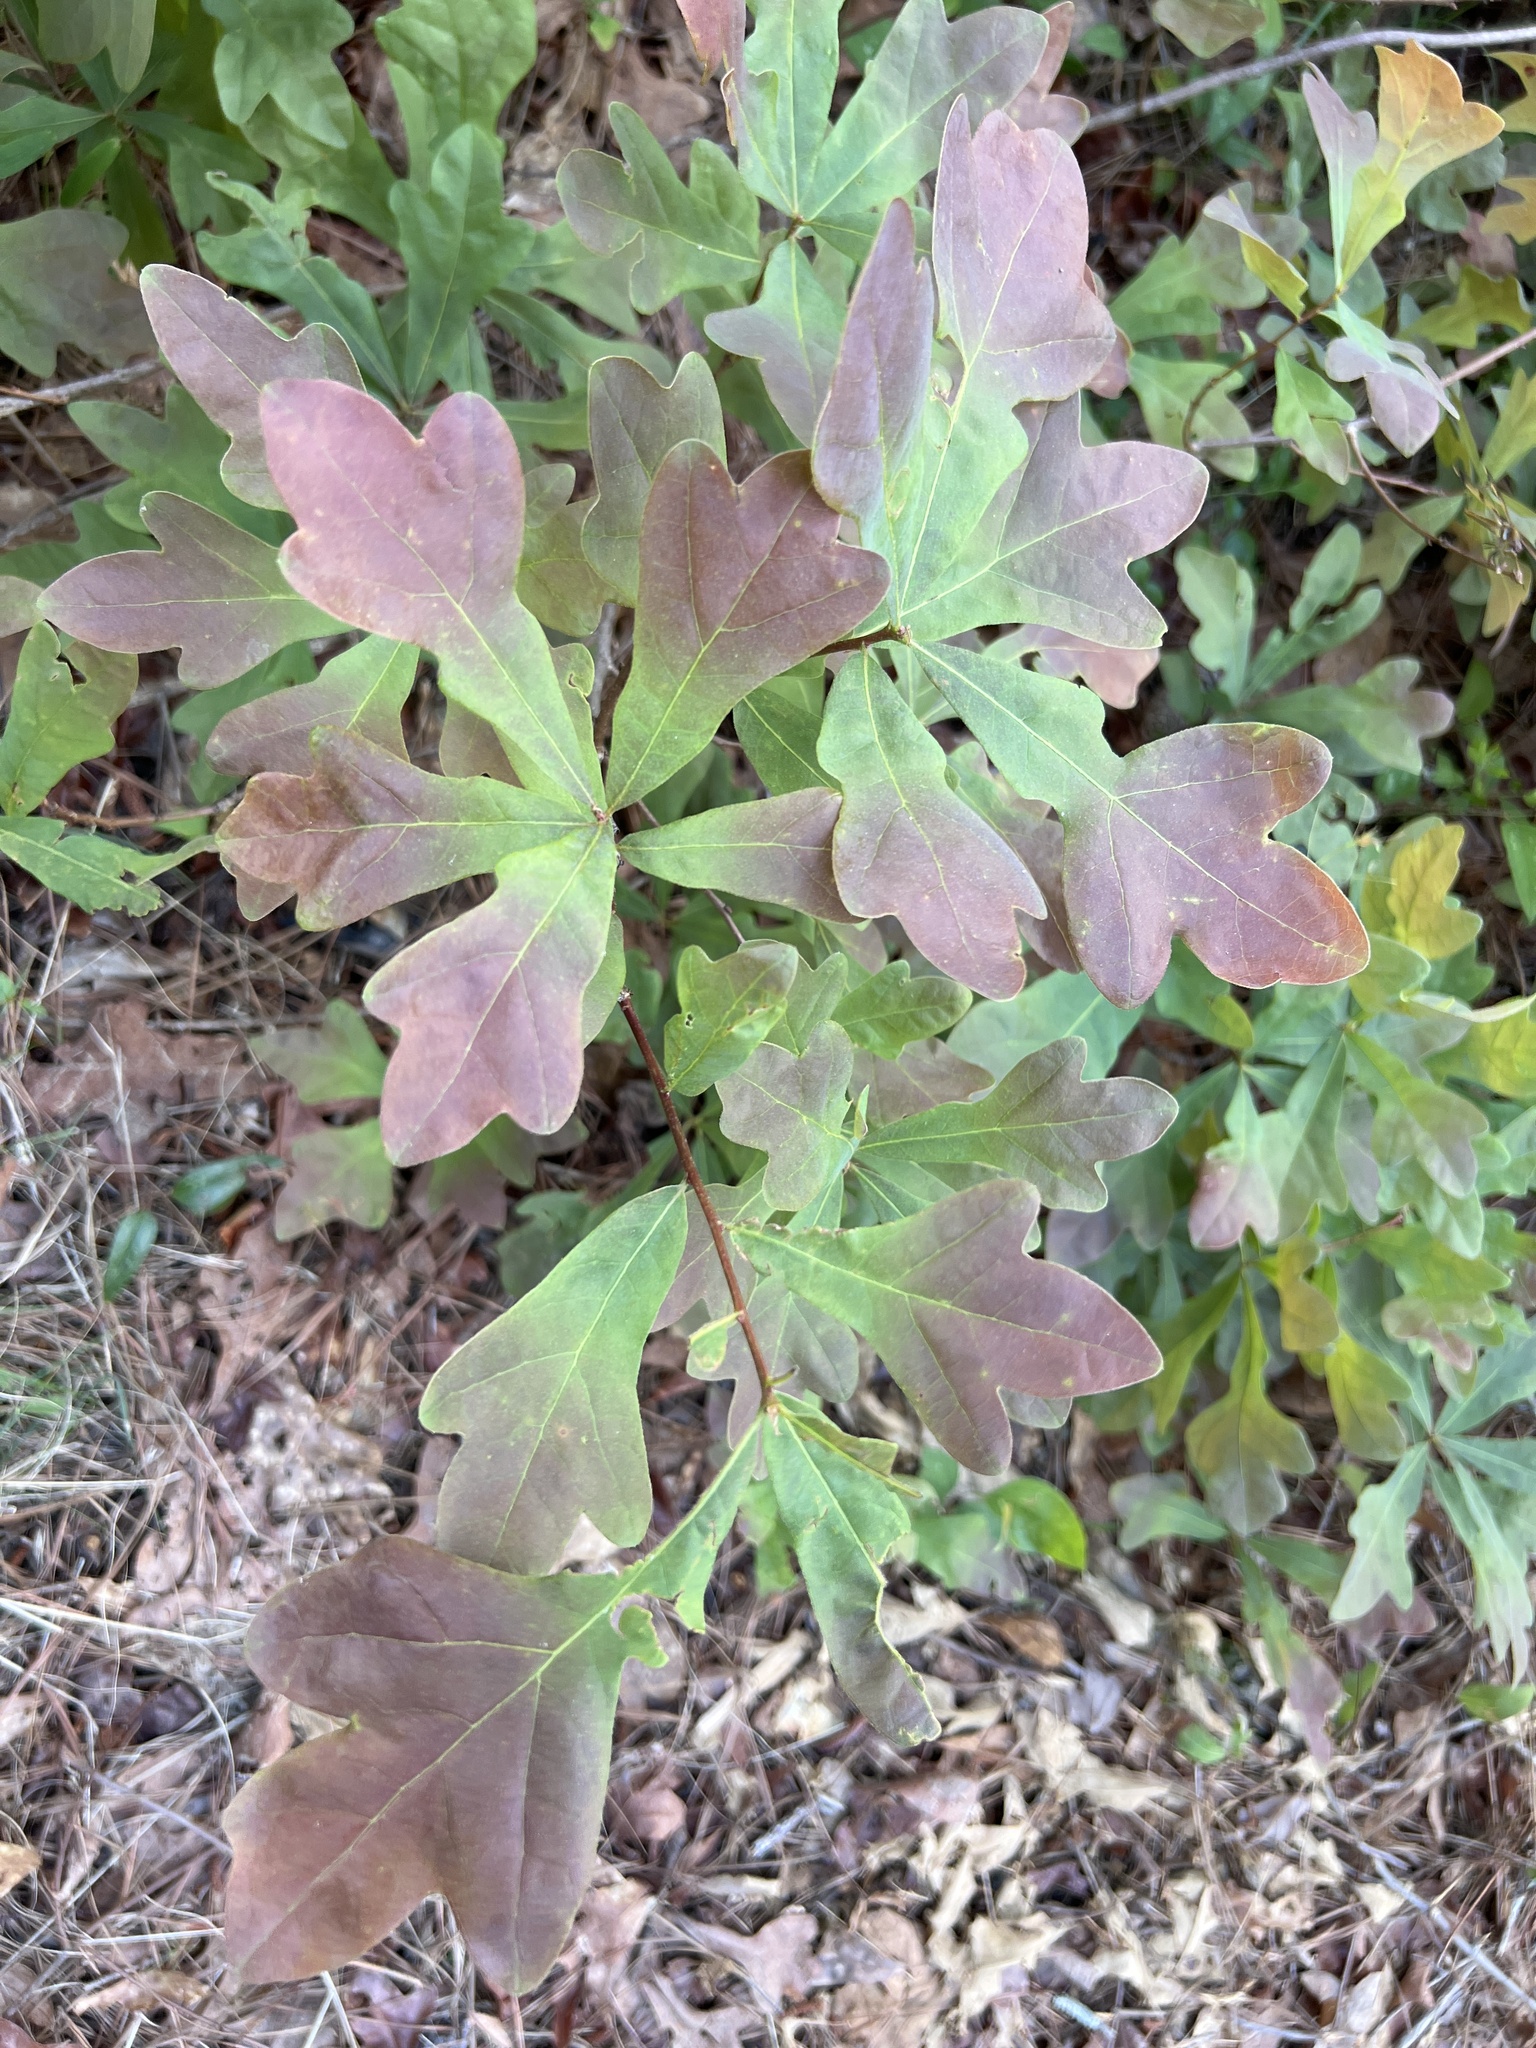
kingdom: Plantae
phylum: Tracheophyta
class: Magnoliopsida
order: Fagales
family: Fagaceae
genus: Quercus
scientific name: Quercus margaretiae
